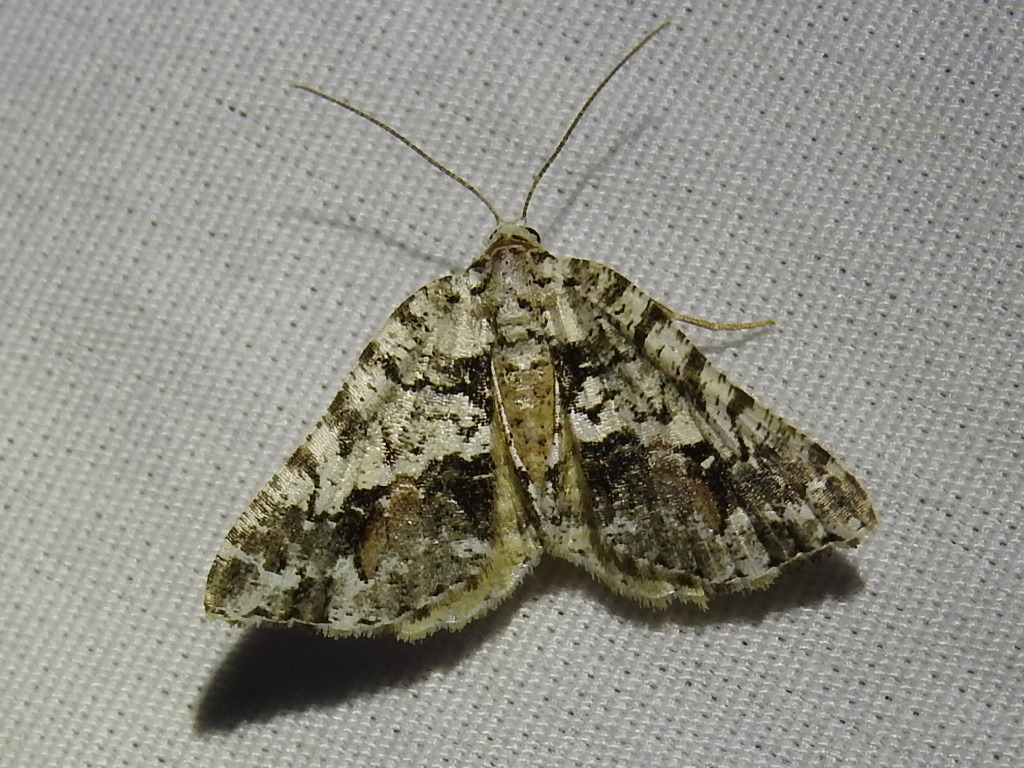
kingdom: Animalia
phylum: Arthropoda
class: Insecta
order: Lepidoptera
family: Geometridae
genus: Macaria
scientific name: Macaria graphidaria
